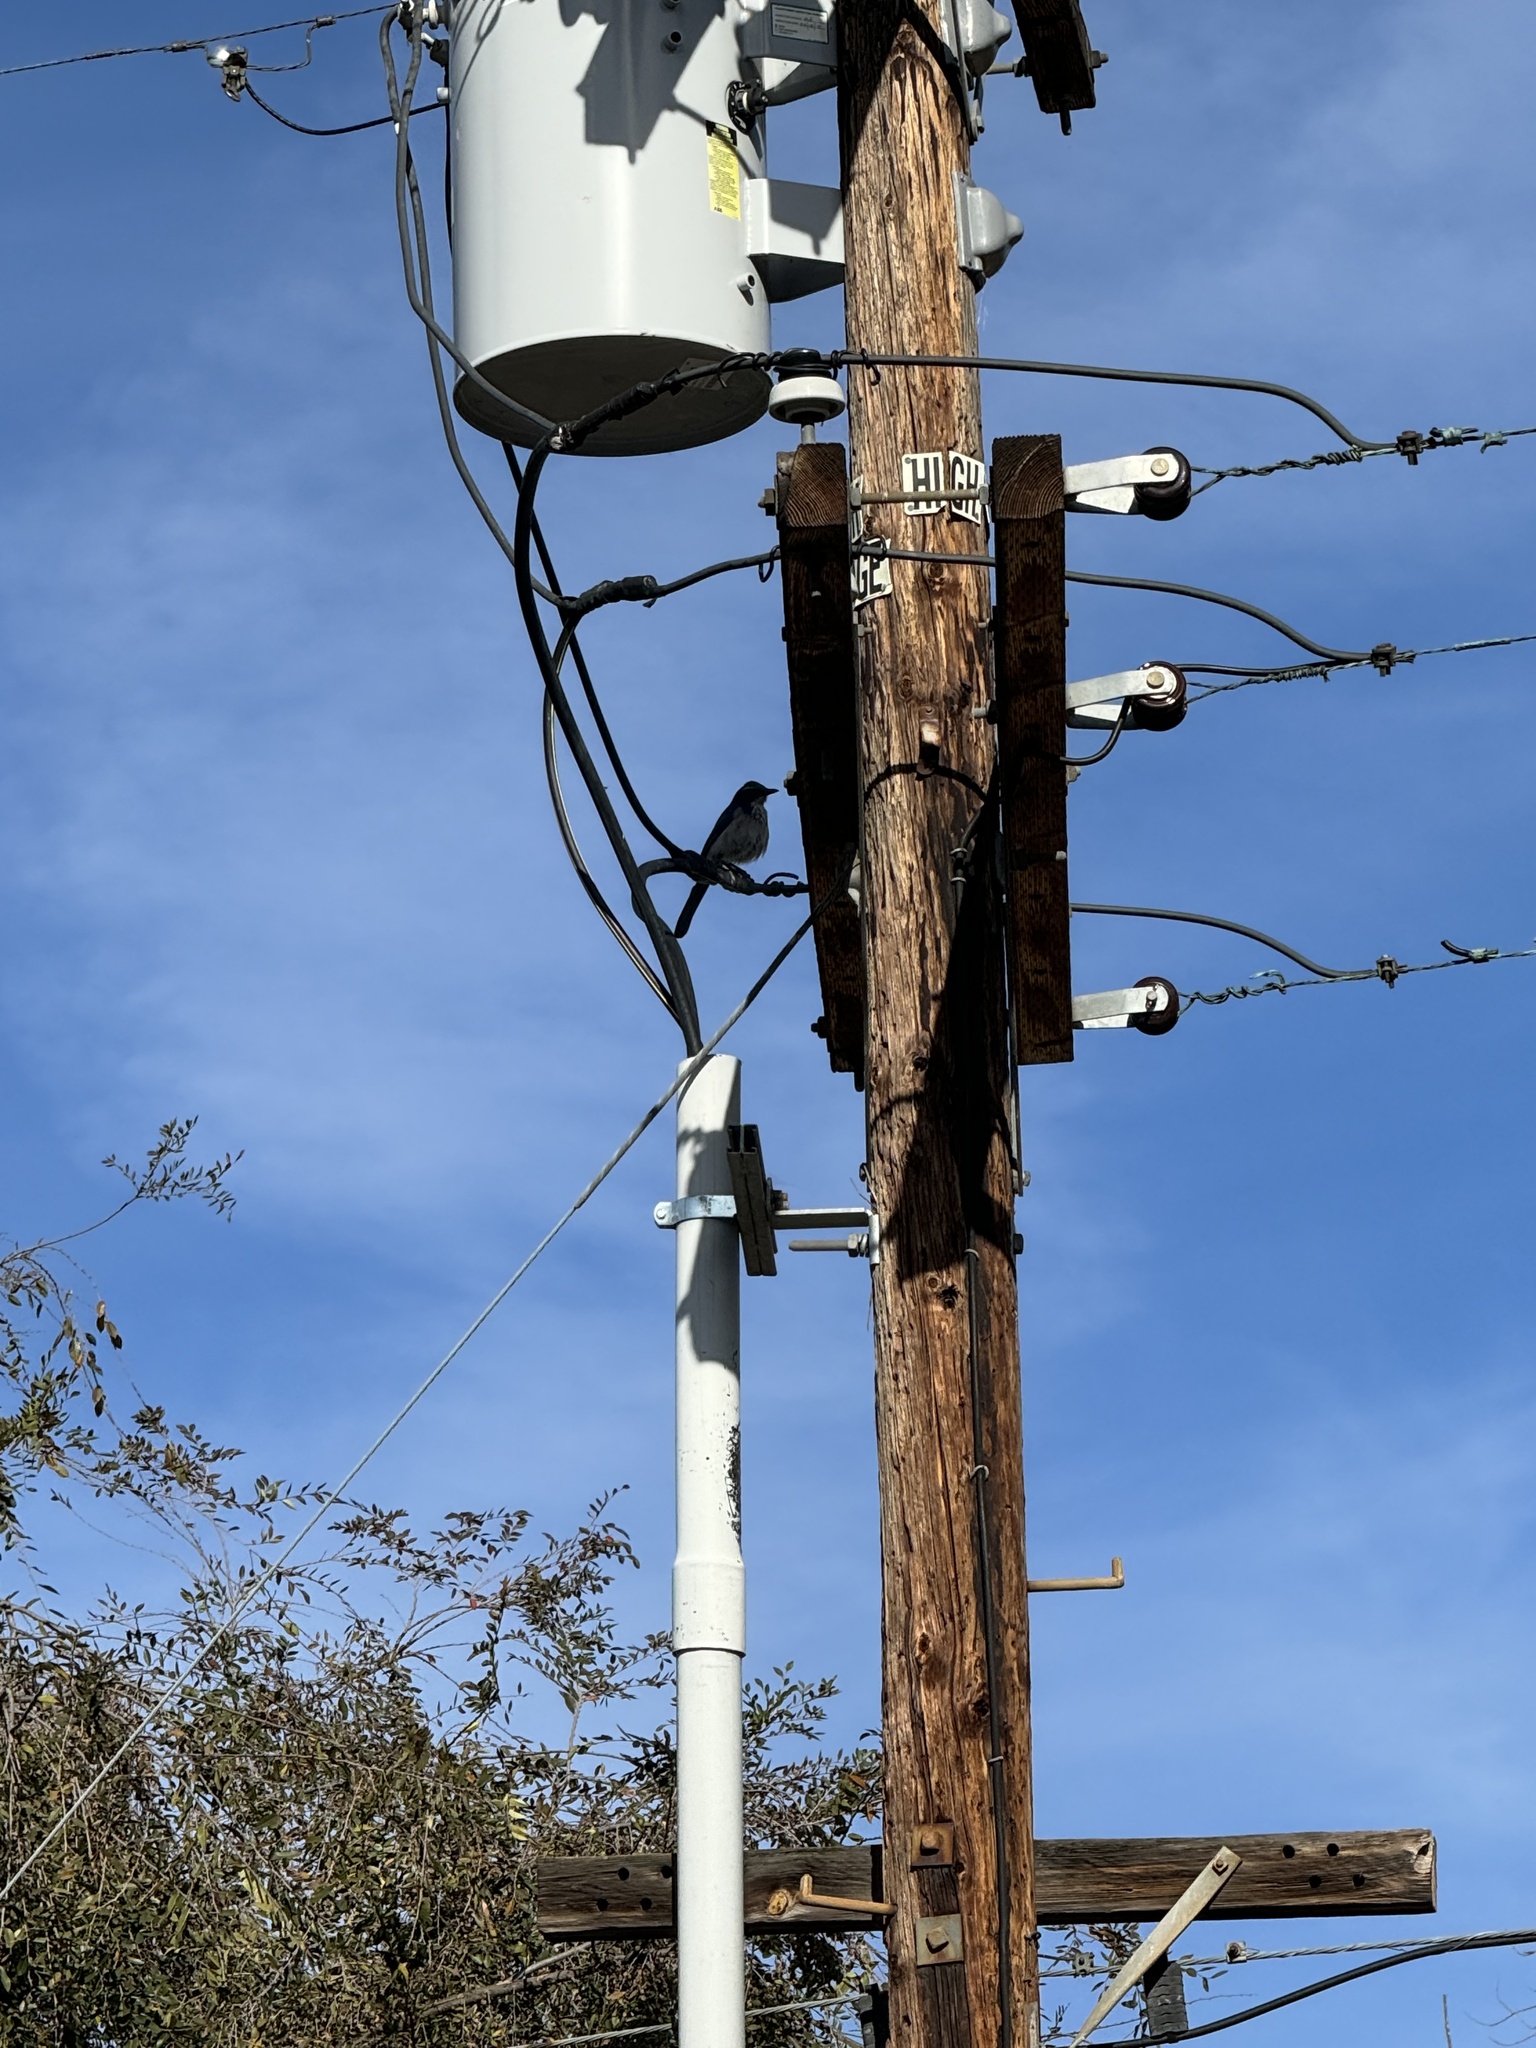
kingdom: Animalia
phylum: Chordata
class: Aves
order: Passeriformes
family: Corvidae
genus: Aphelocoma
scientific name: Aphelocoma californica
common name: California scrub-jay
